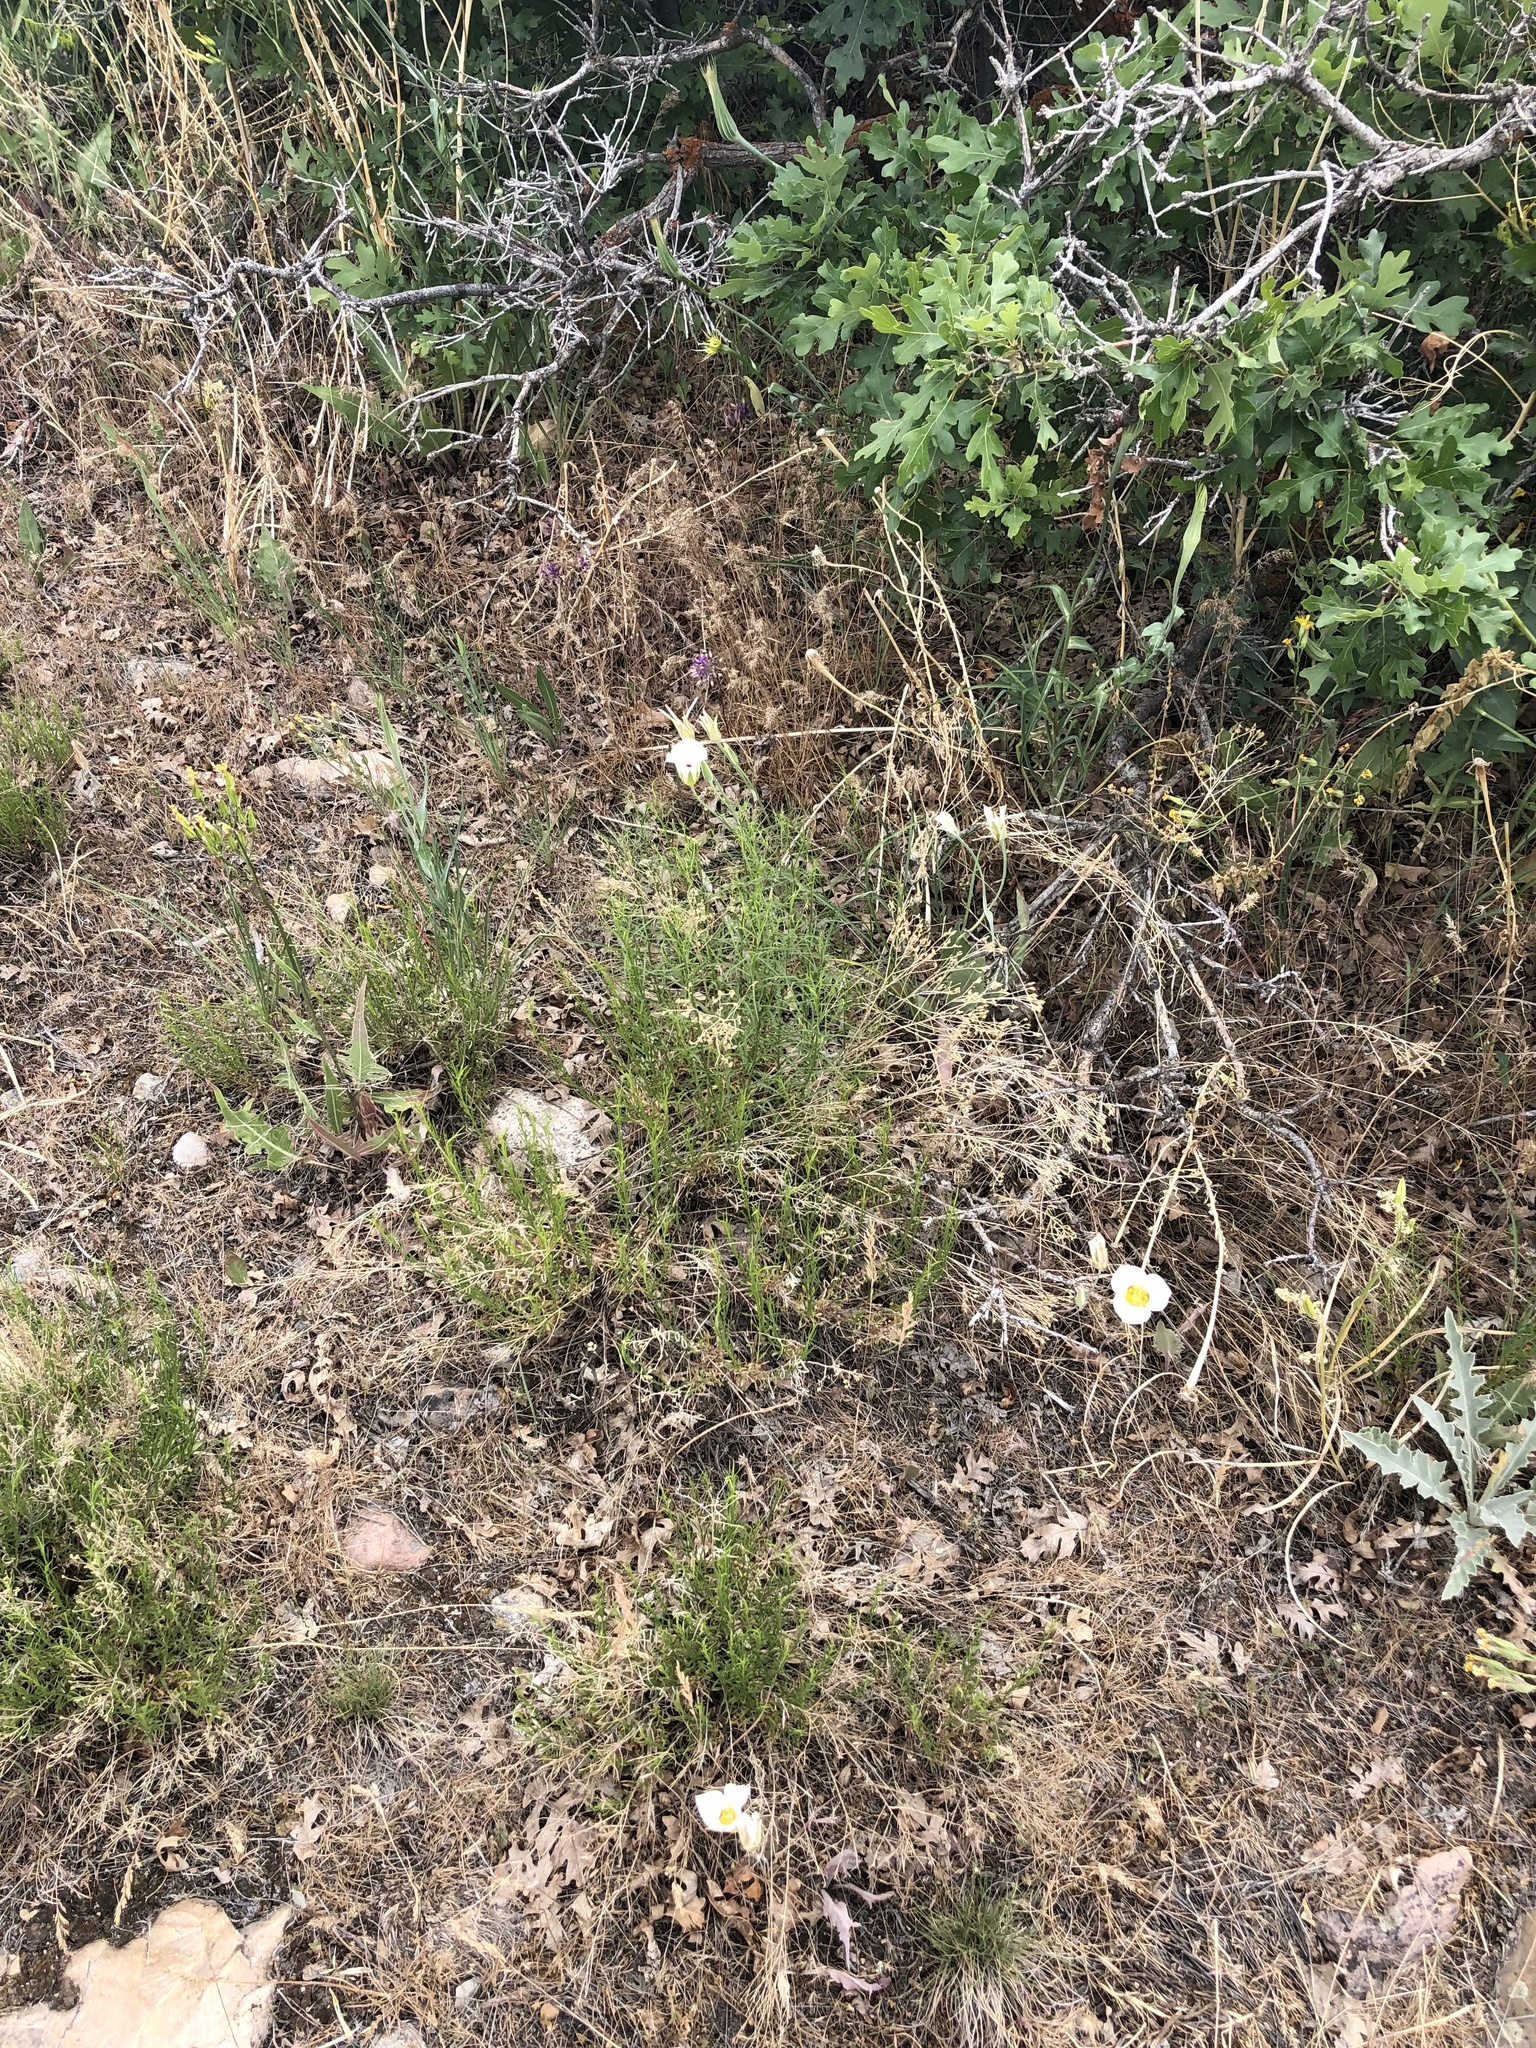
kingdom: Plantae
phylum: Tracheophyta
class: Liliopsida
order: Liliales
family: Liliaceae
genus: Calochortus
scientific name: Calochortus nuttallii
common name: Sego-lily
